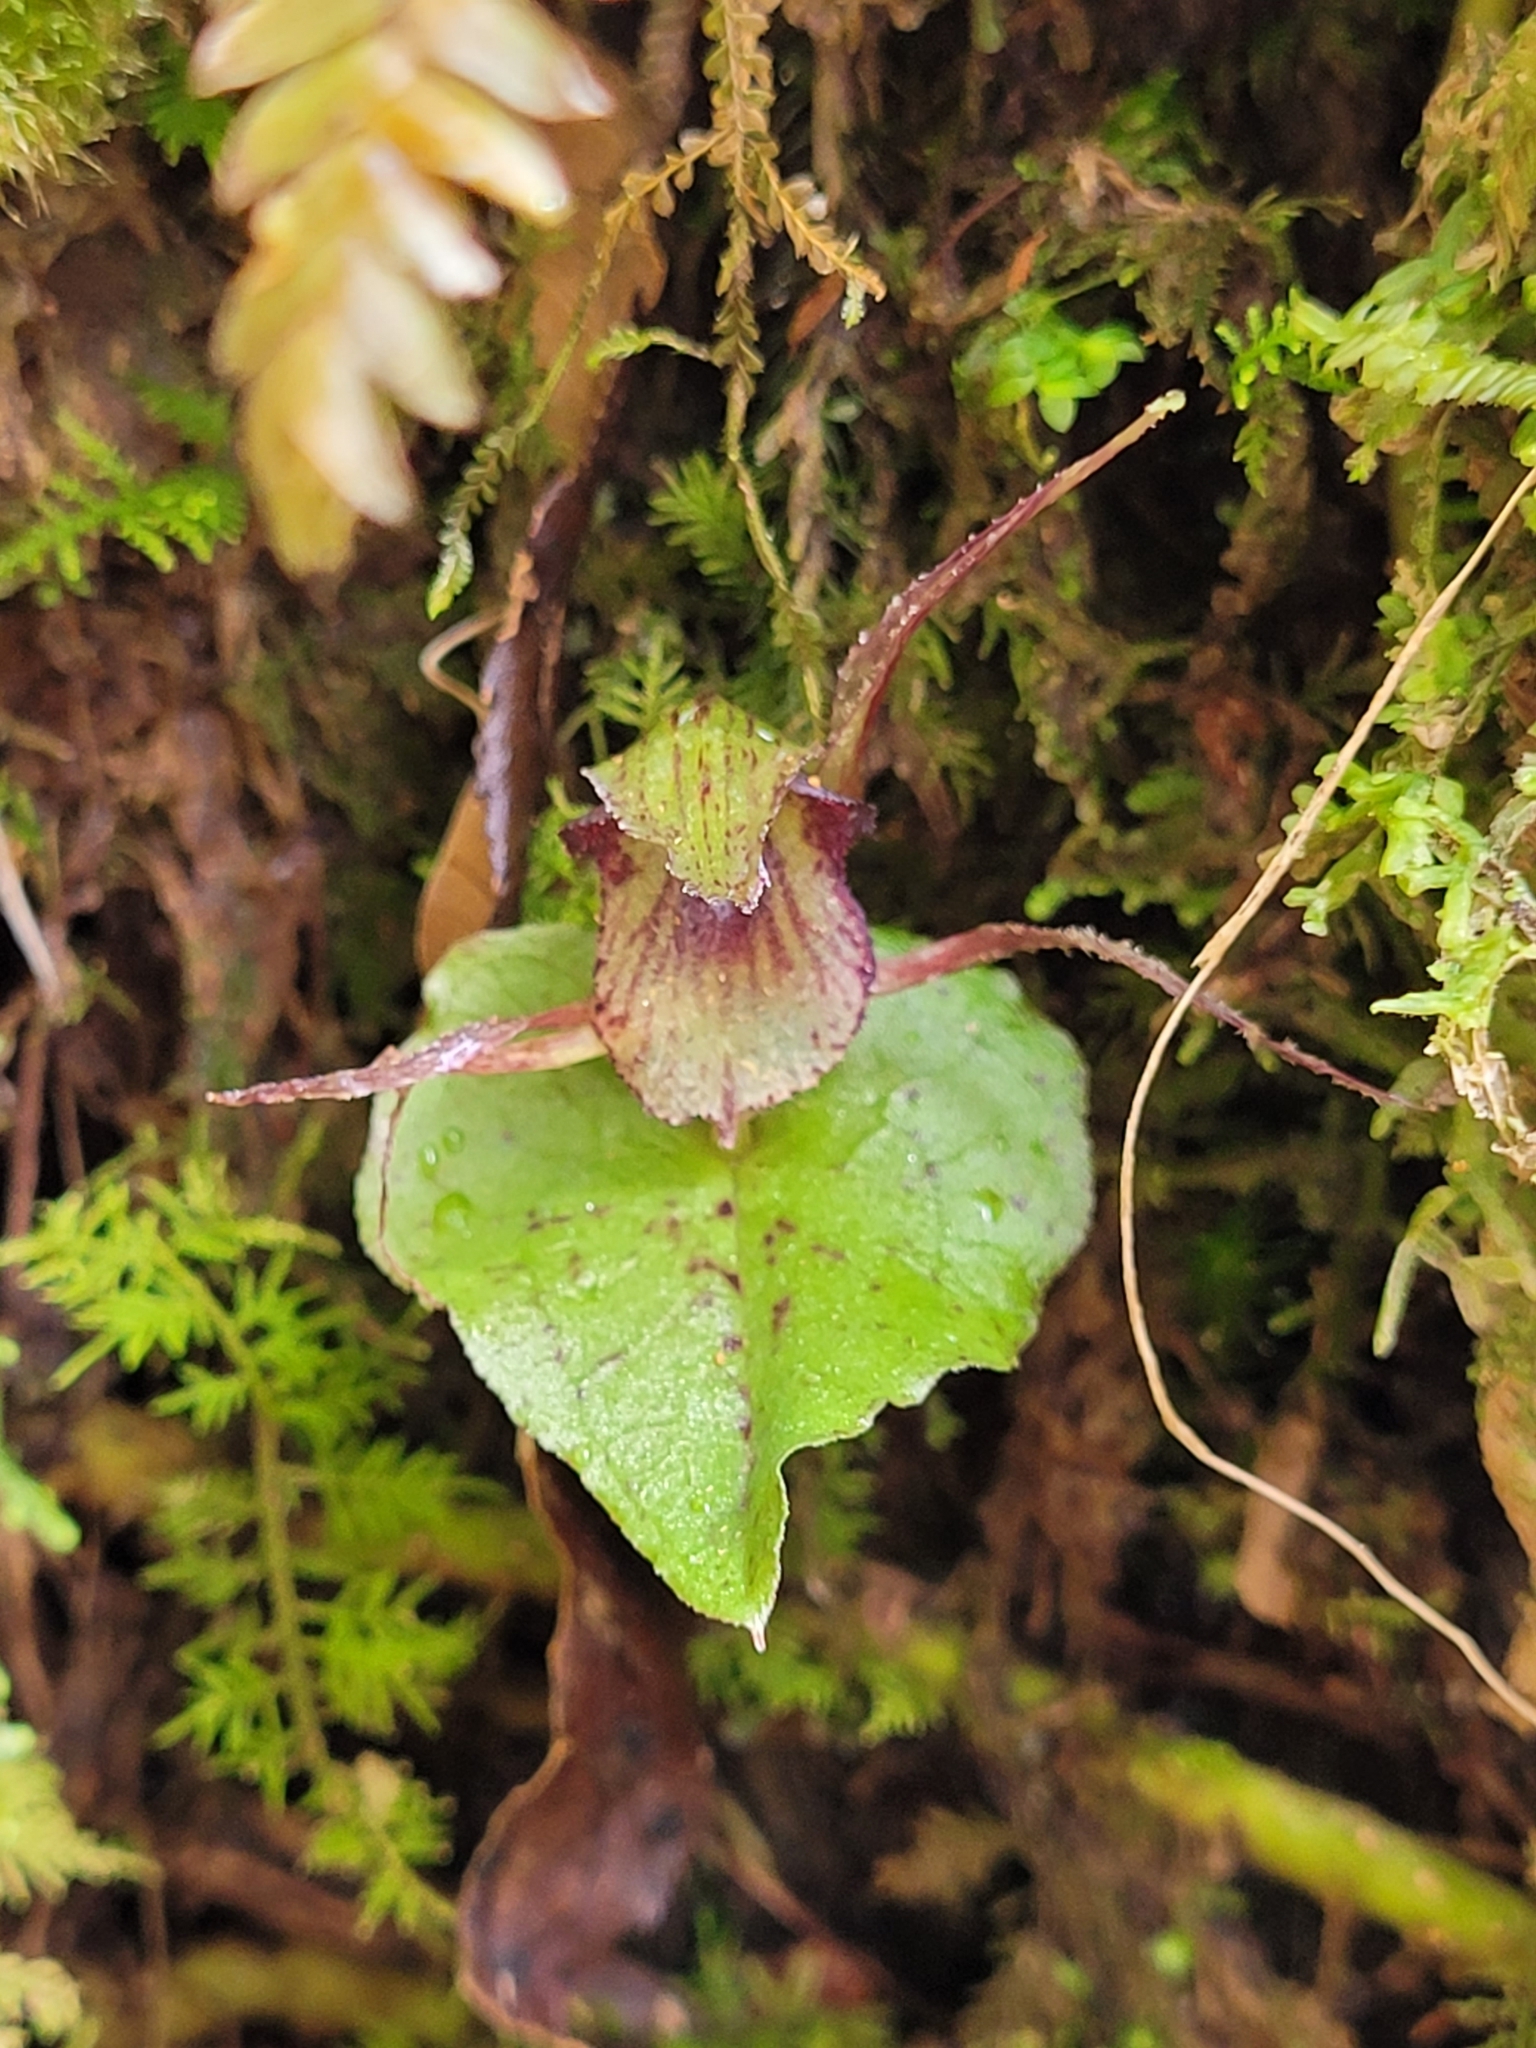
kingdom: Plantae
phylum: Tracheophyta
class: Liliopsida
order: Asparagales
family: Orchidaceae
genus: Corybas
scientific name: Corybas acuminatus
